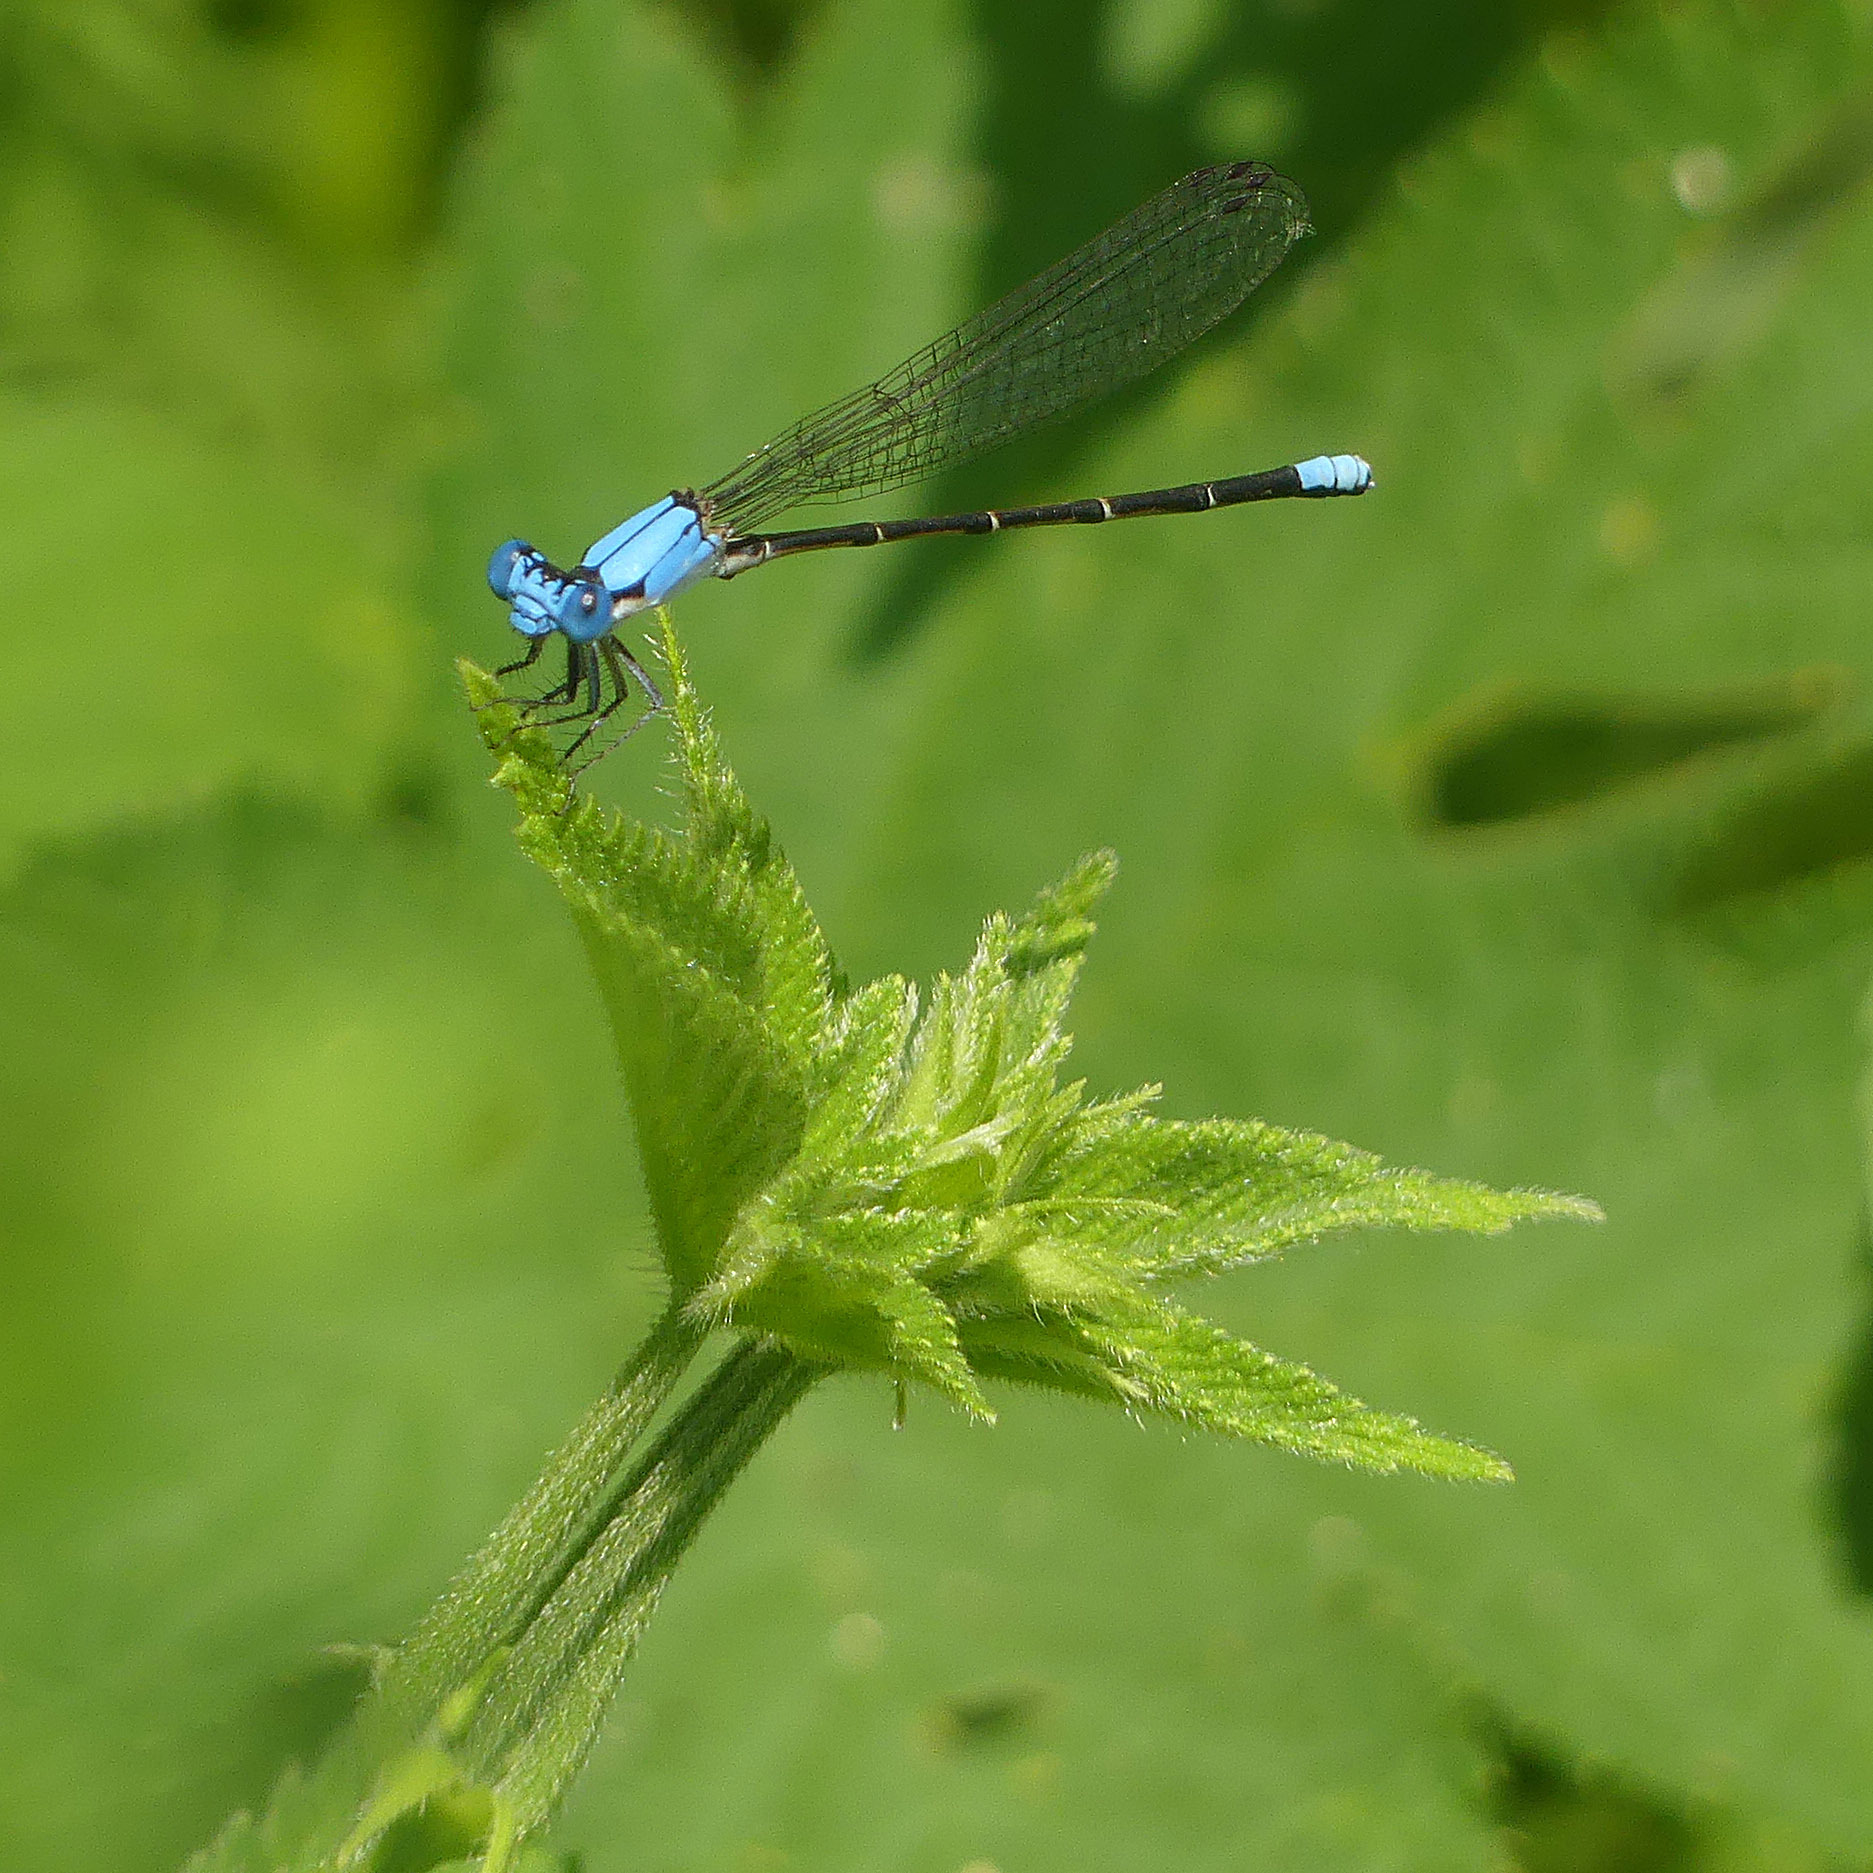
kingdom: Animalia
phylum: Arthropoda
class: Insecta
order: Odonata
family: Coenagrionidae
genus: Argia
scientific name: Argia apicalis
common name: Blue-fronted dancer
